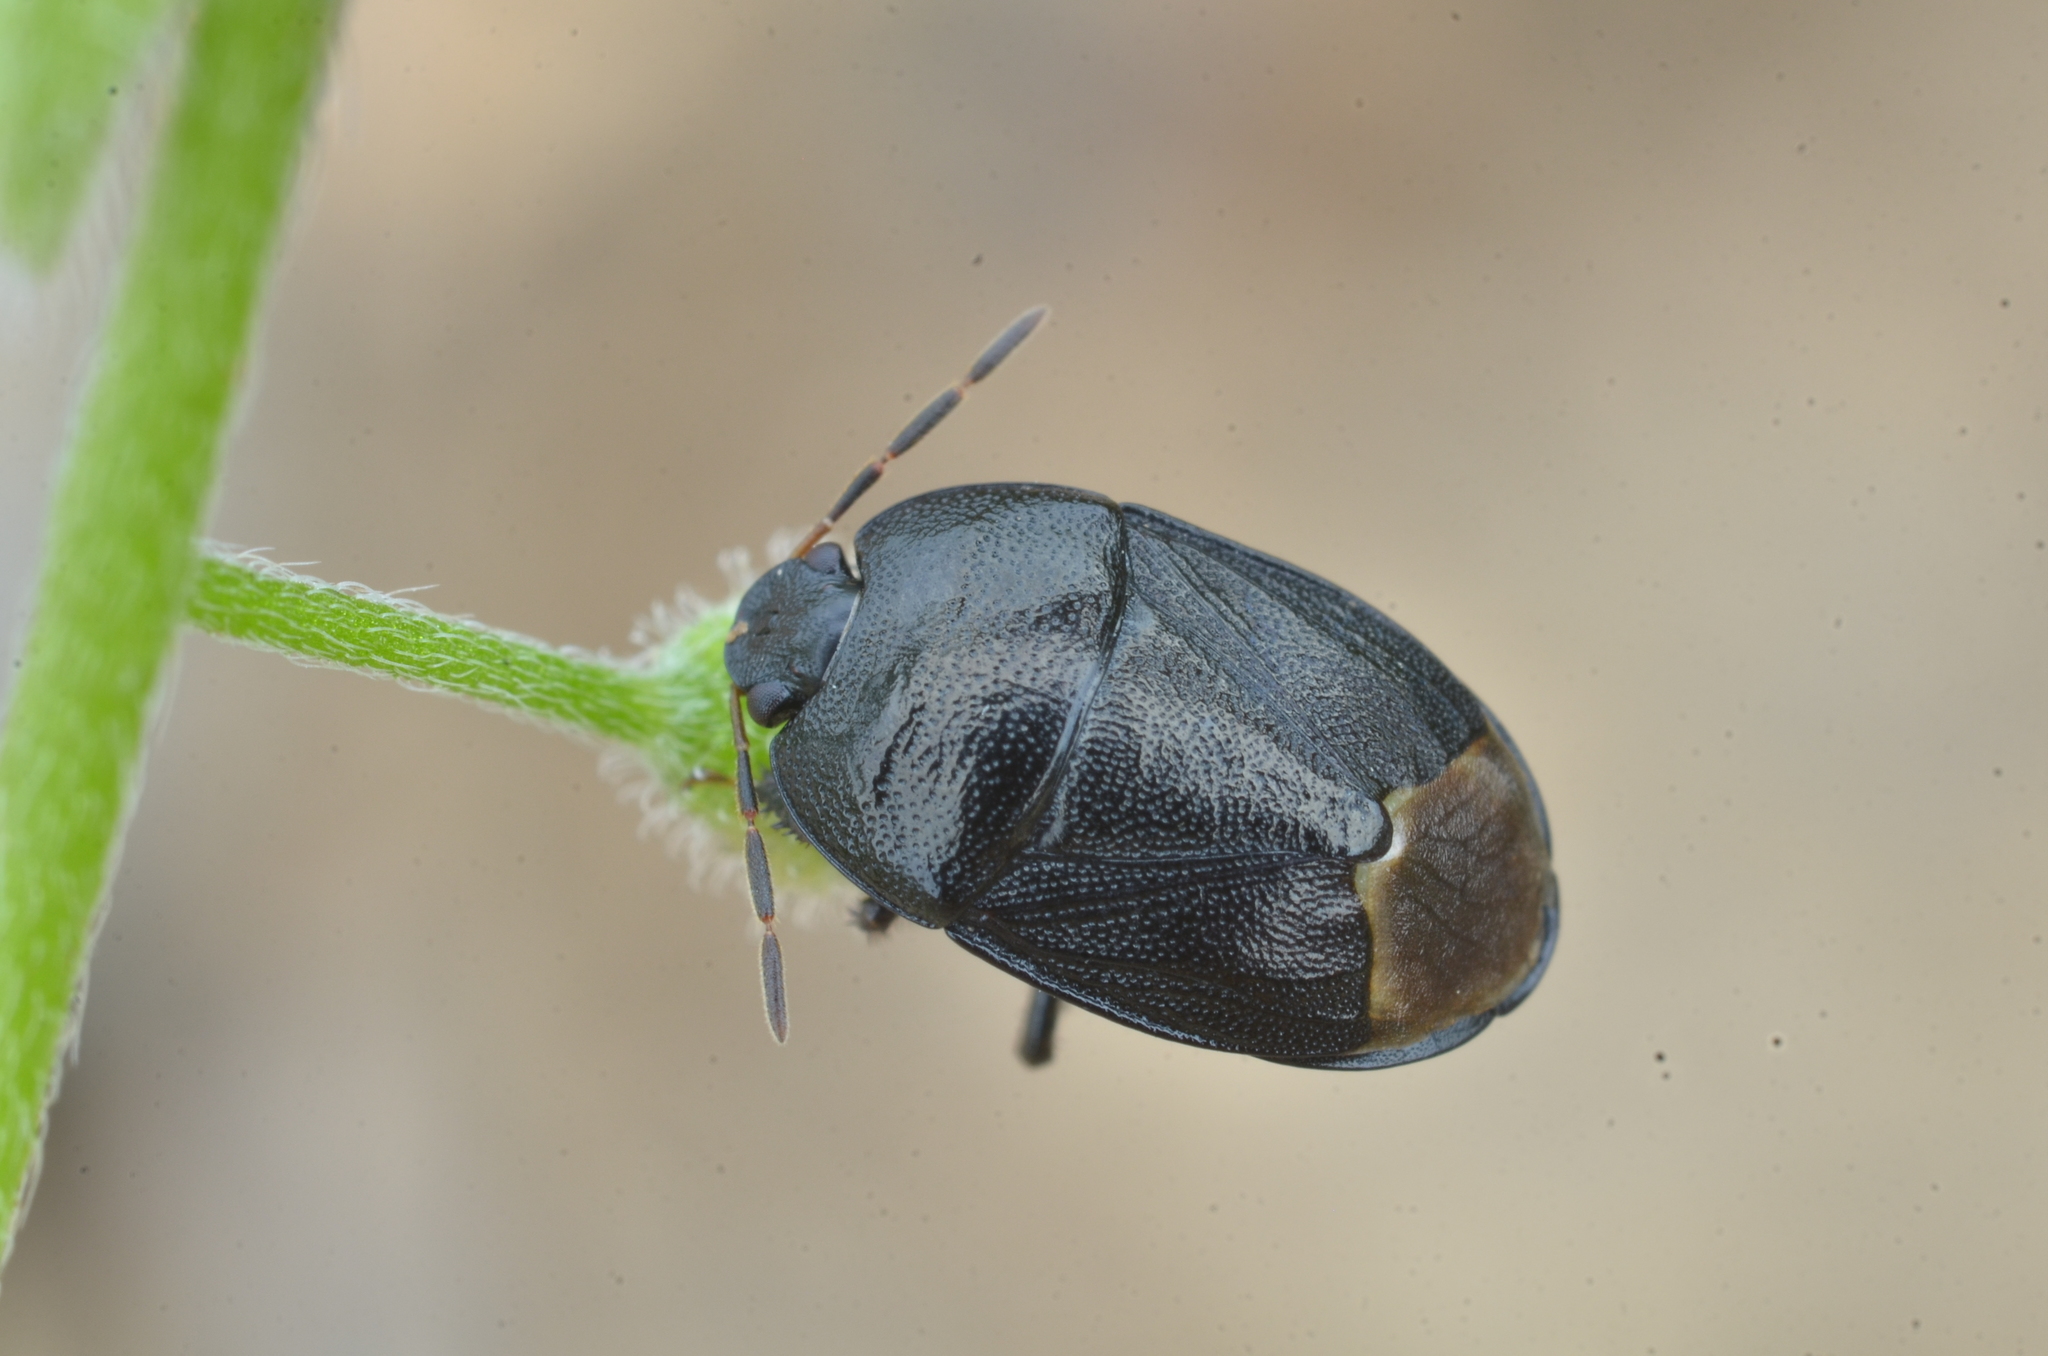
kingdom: Animalia
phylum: Arthropoda
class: Insecta
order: Hemiptera
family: Cydnidae
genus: Sehirus
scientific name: Sehirus luctuosus
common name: Forget-me-not shieldbug
